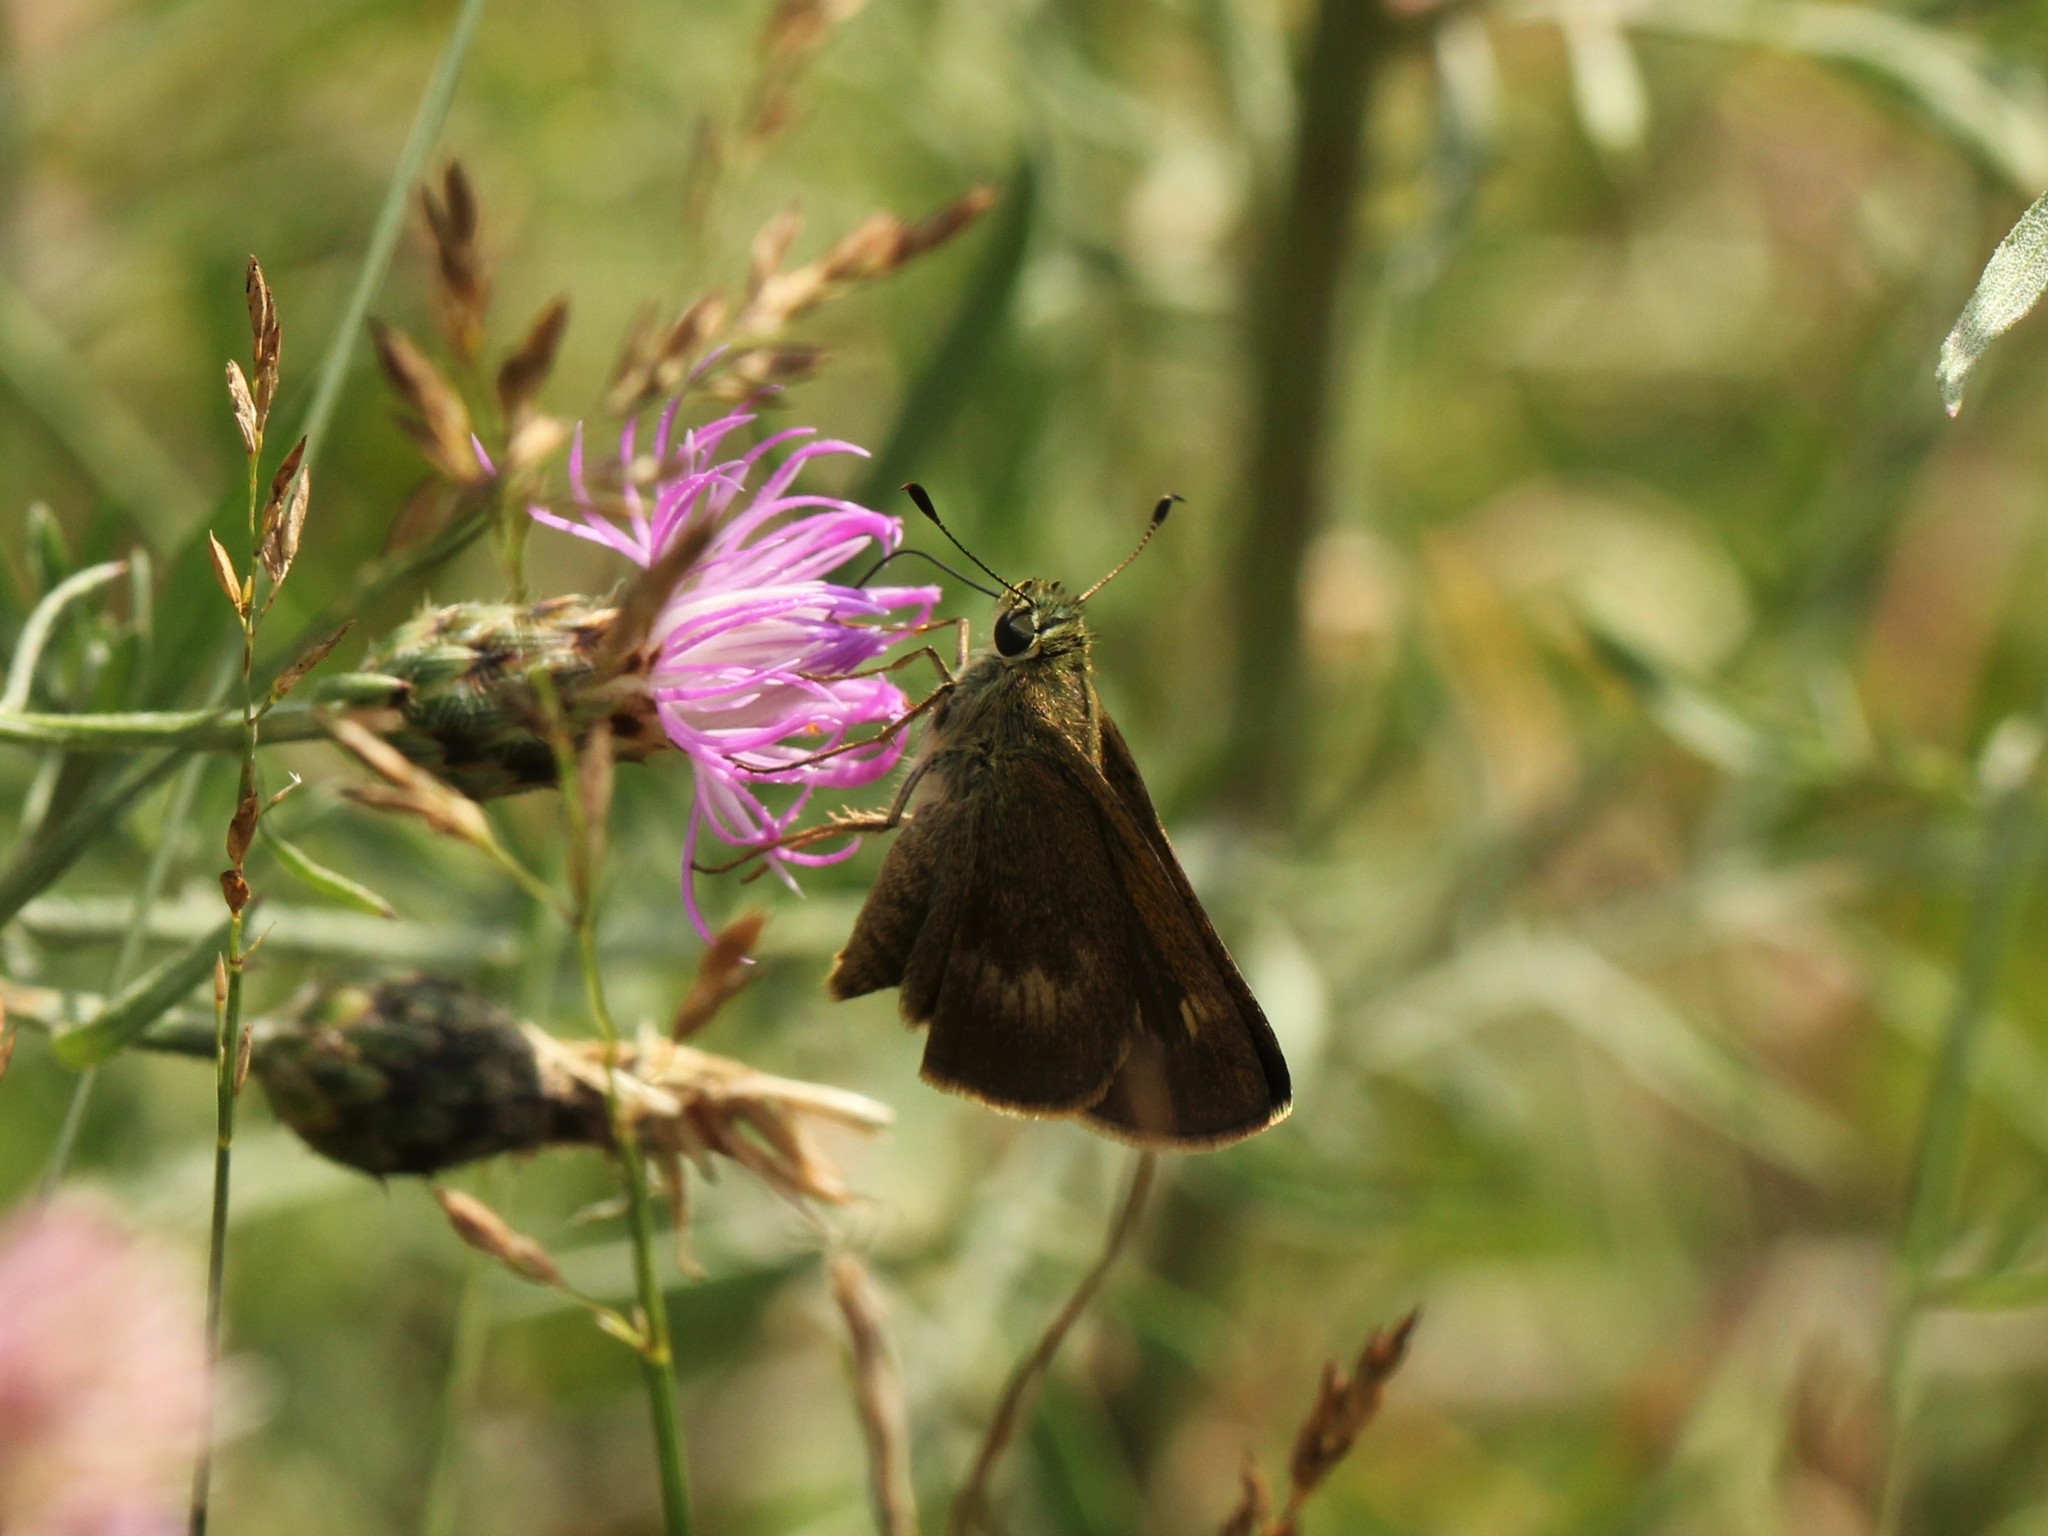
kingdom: Animalia
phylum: Arthropoda
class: Insecta
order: Lepidoptera
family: Hesperiidae
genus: Polites
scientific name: Polites egeremet
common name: Northern broken-dash
